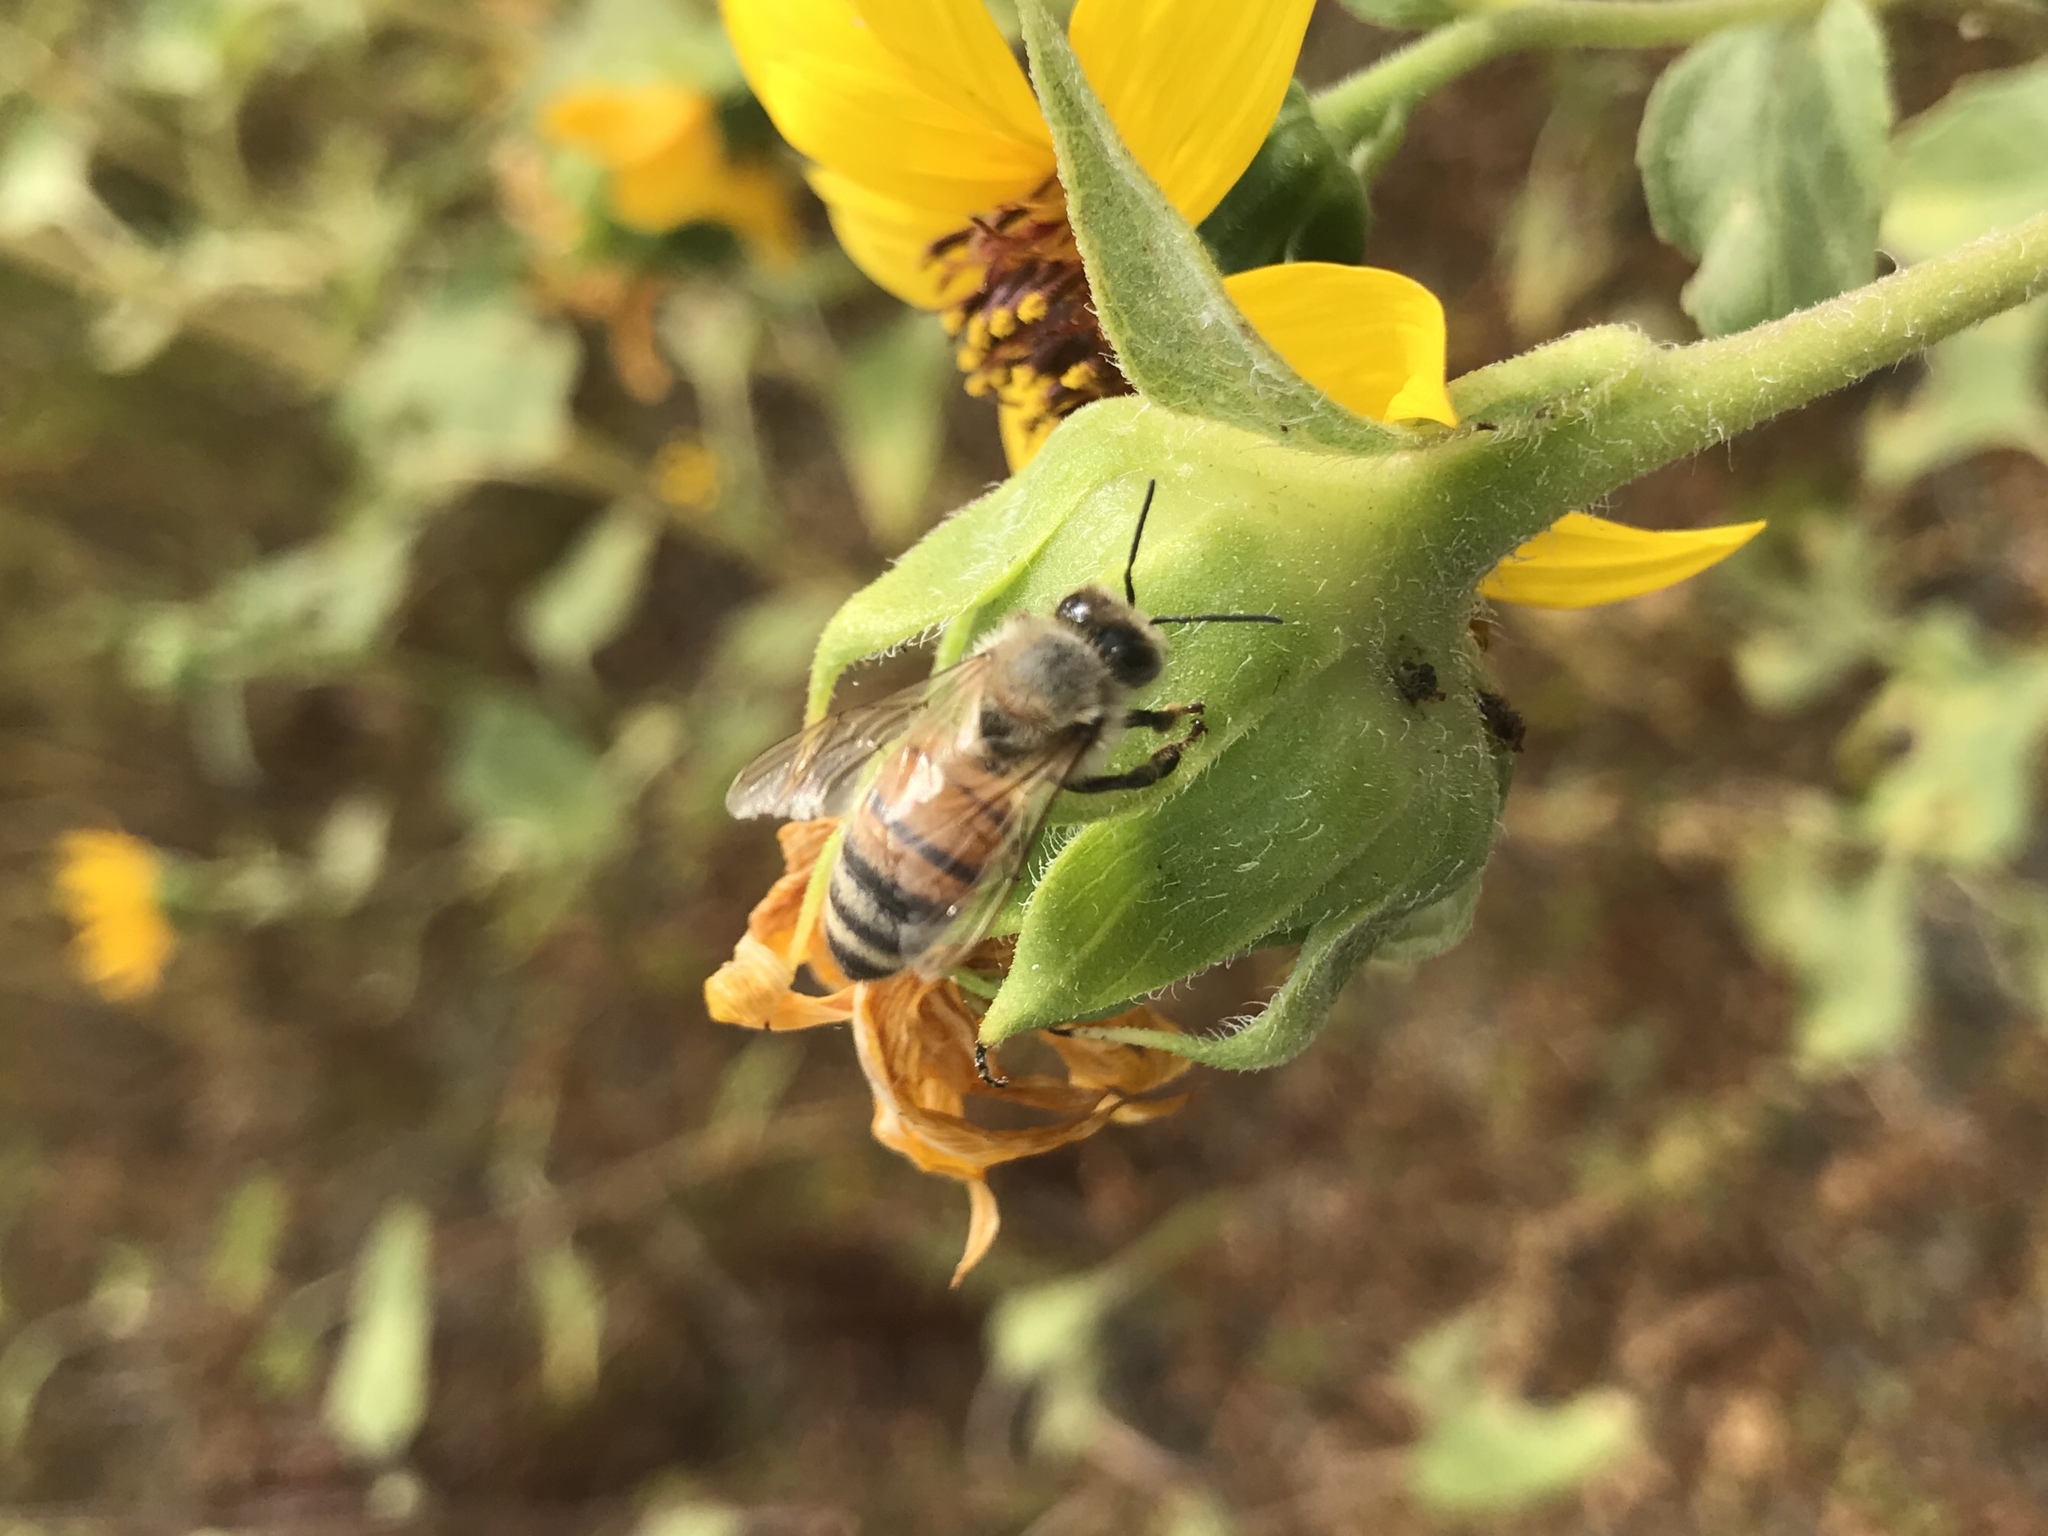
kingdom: Animalia
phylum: Arthropoda
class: Insecta
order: Hymenoptera
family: Apidae
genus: Apis
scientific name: Apis mellifera
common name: Honey bee
